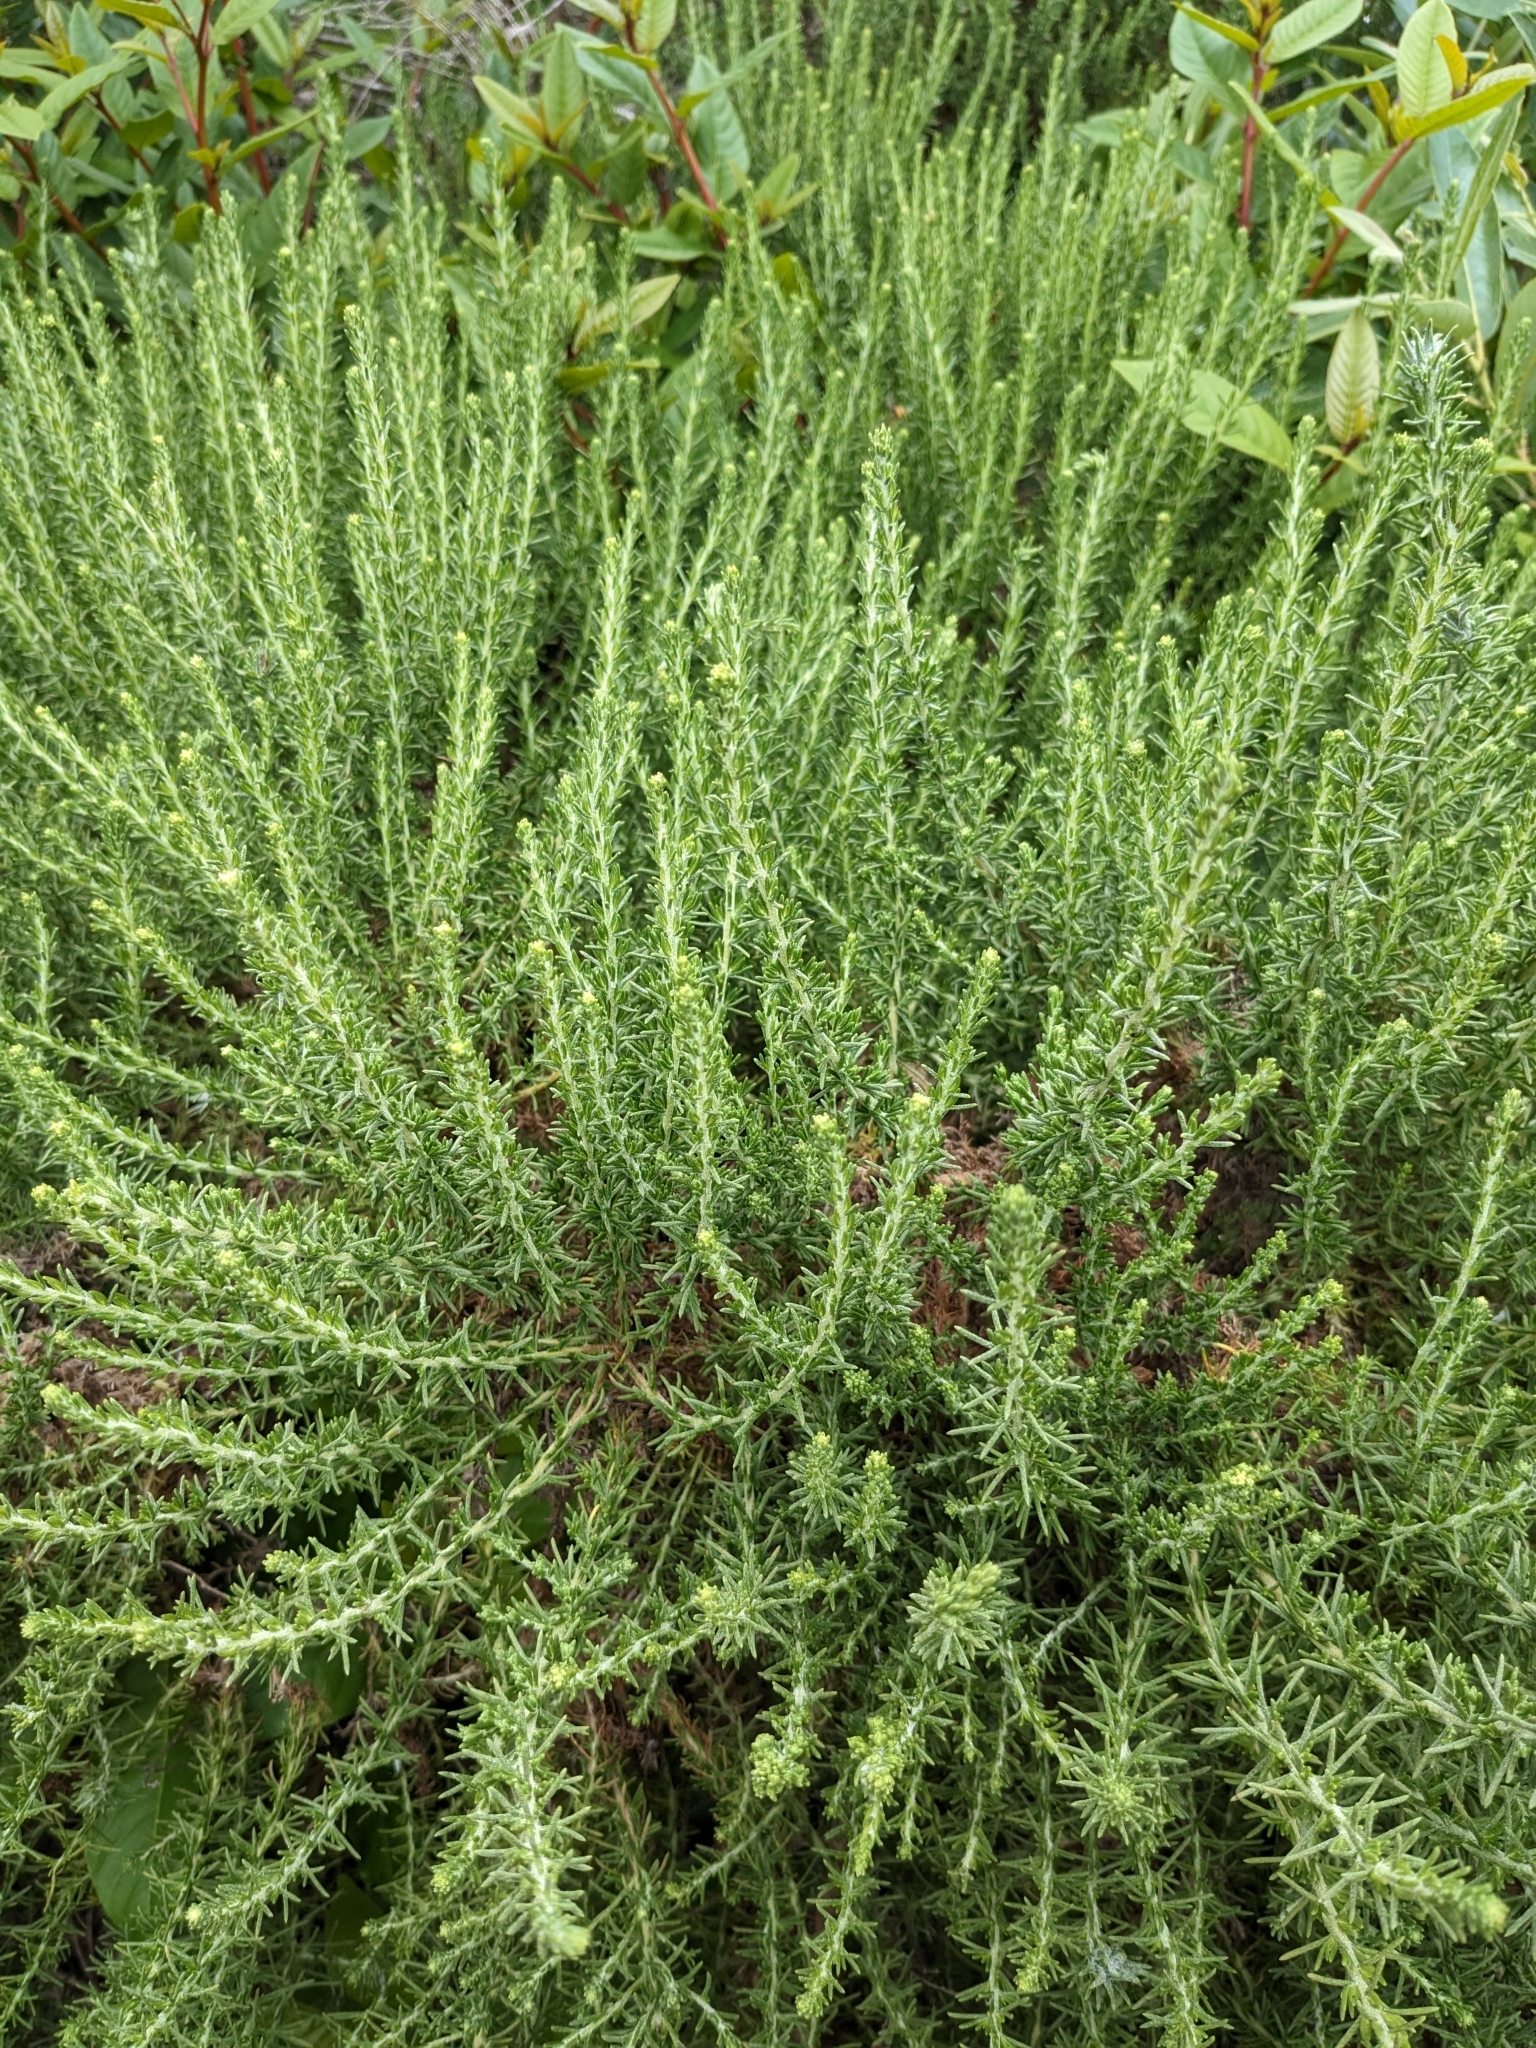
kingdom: Plantae
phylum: Tracheophyta
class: Magnoliopsida
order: Asterales
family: Asteraceae
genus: Ericameria
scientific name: Ericameria ericoides
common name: California goldenbush
